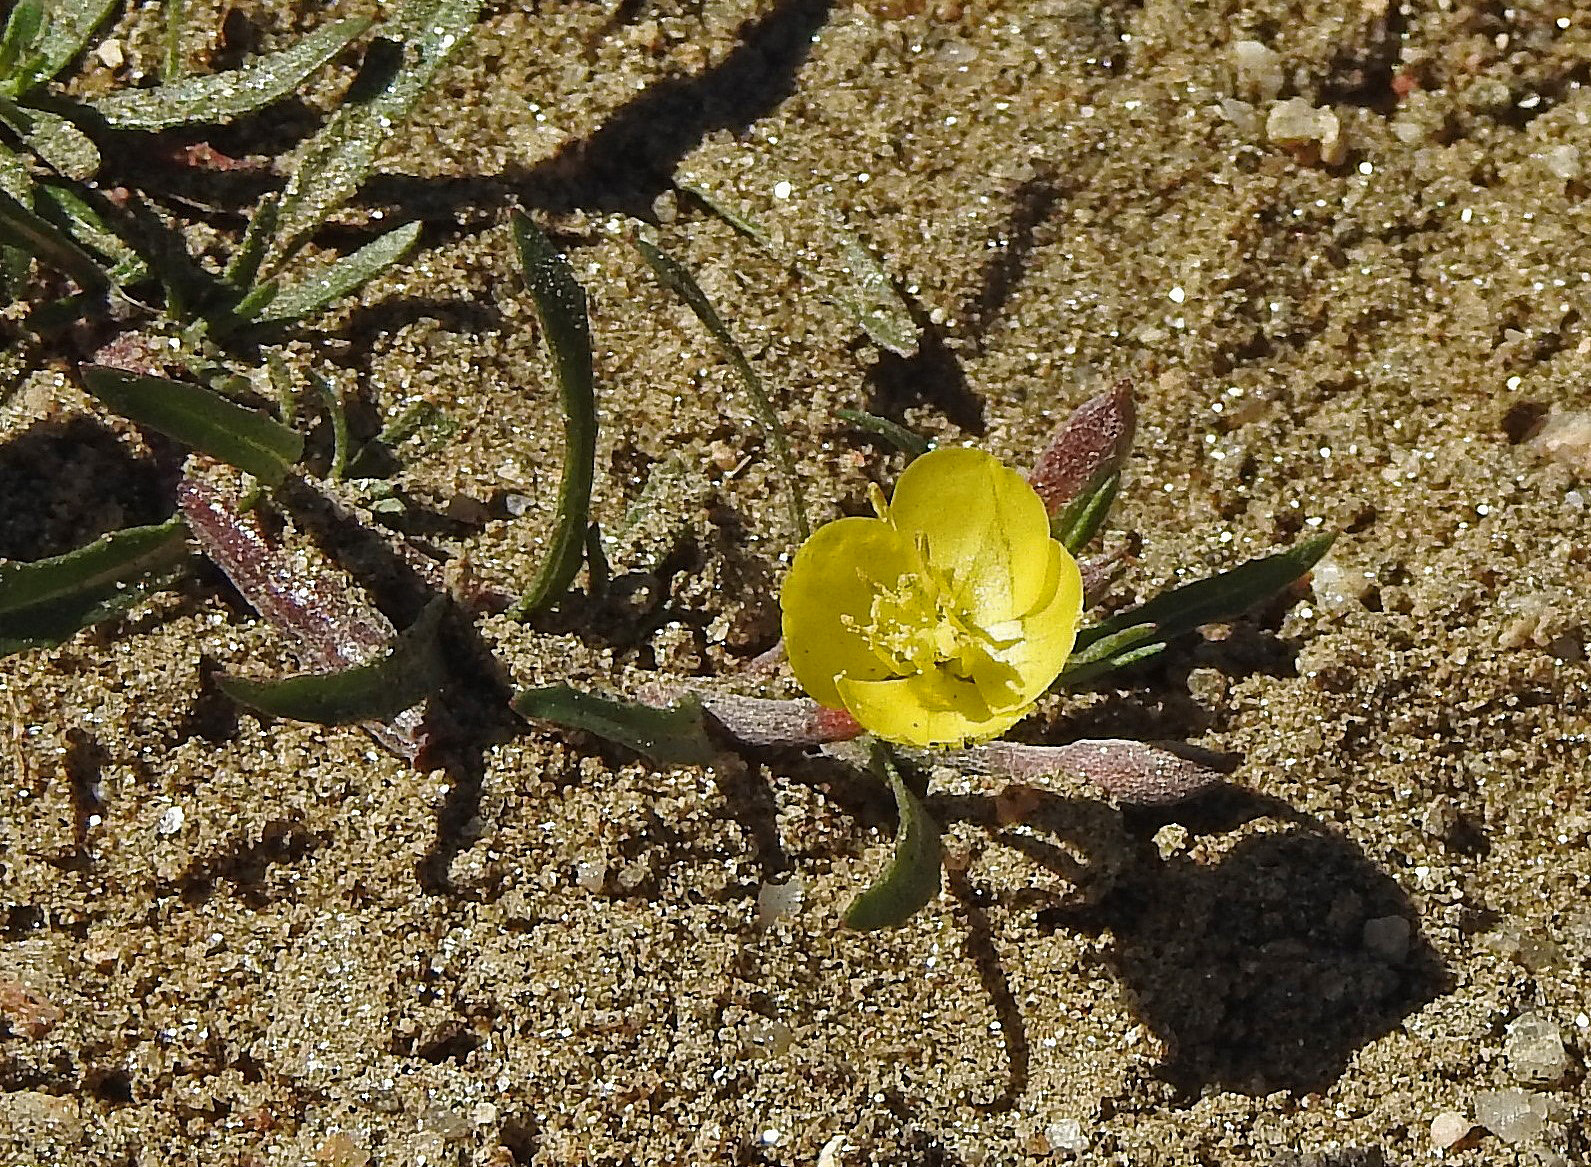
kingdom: Plantae
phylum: Tracheophyta
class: Magnoliopsida
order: Myrtales
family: Onagraceae
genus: Camissonia
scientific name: Camissonia dentata
